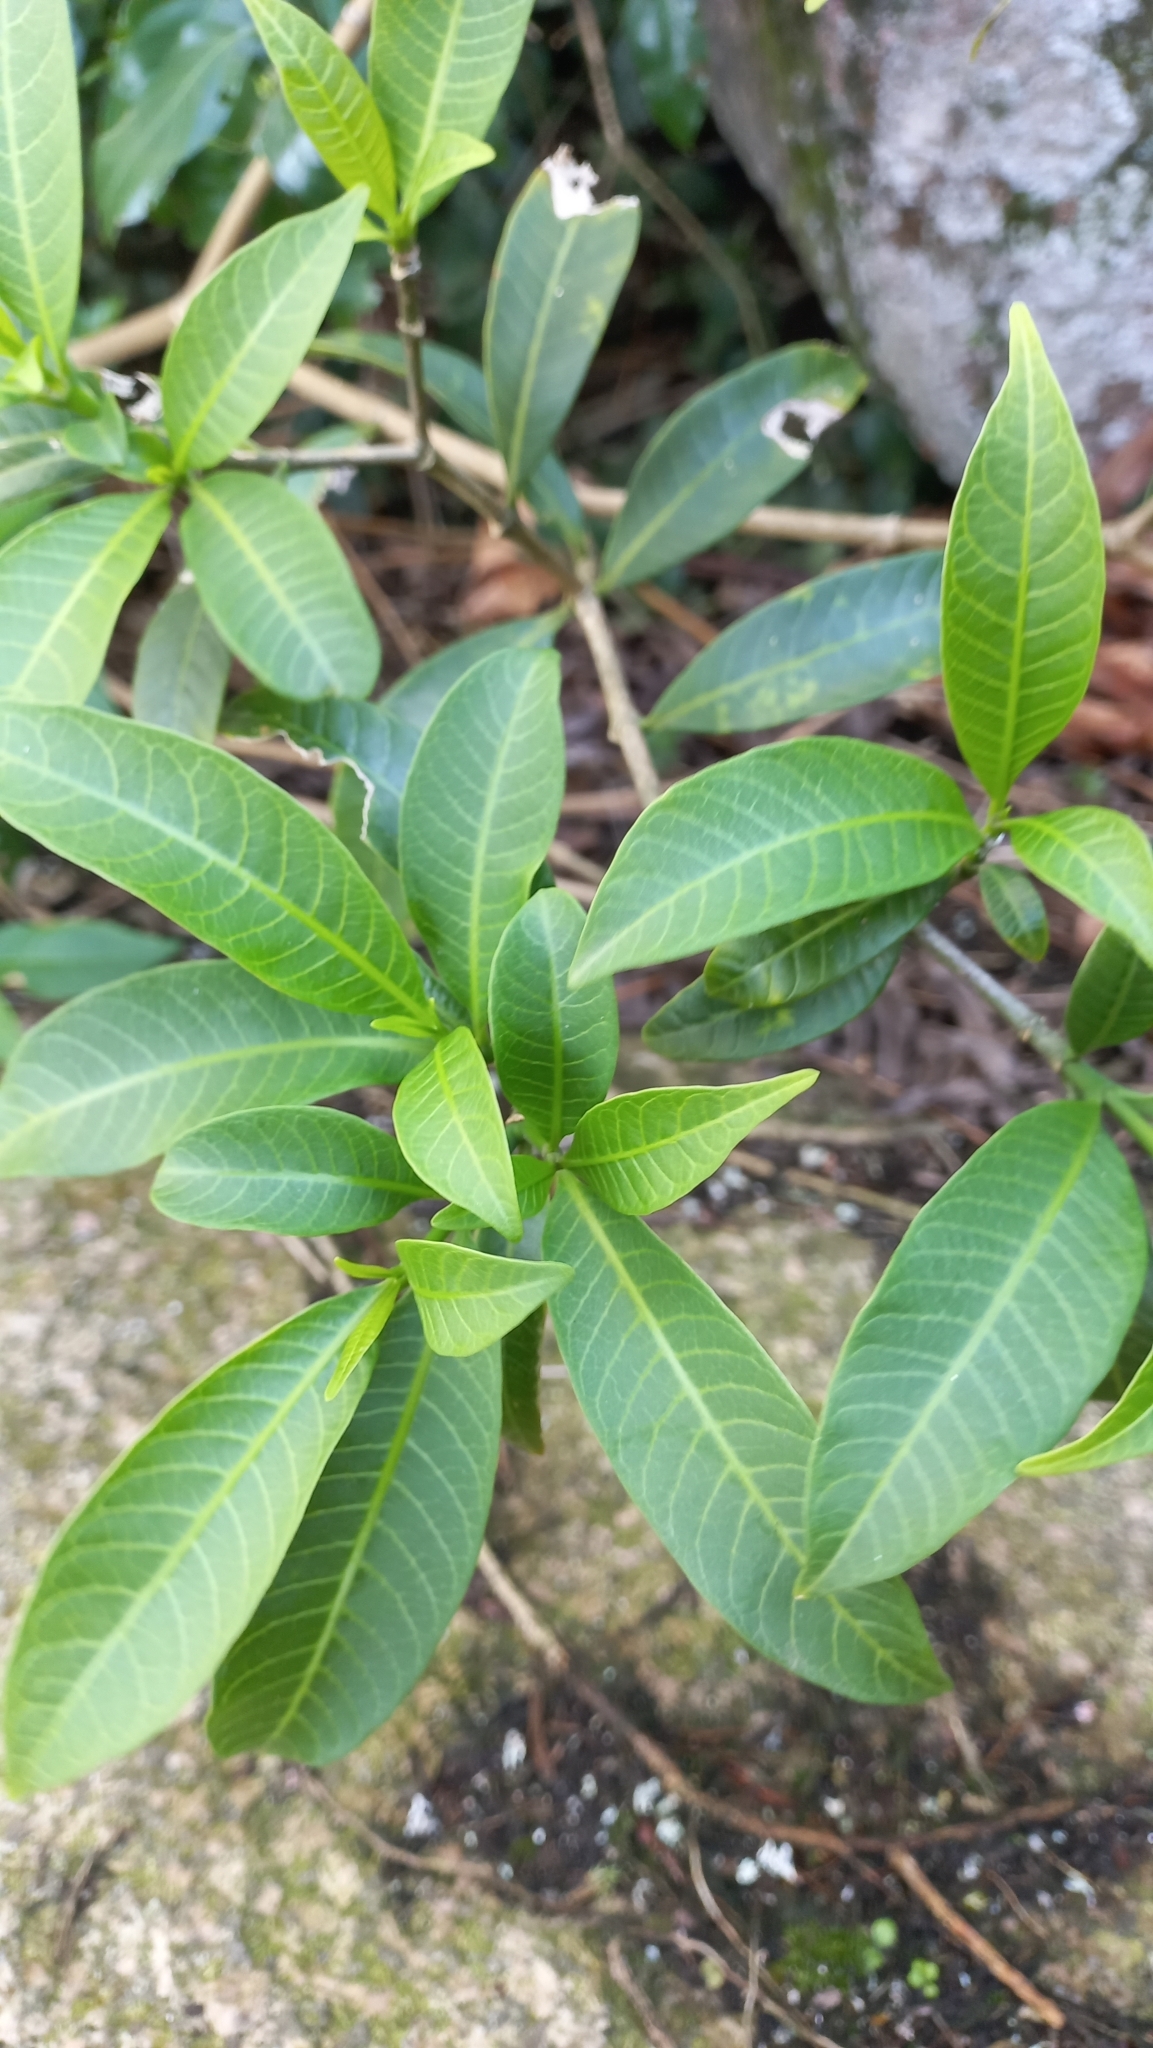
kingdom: Plantae
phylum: Tracheophyta
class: Magnoliopsida
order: Gentianales
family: Apocynaceae
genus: Tabernaemontana
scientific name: Tabernaemontana catharinensis
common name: Pinwheel-flower
